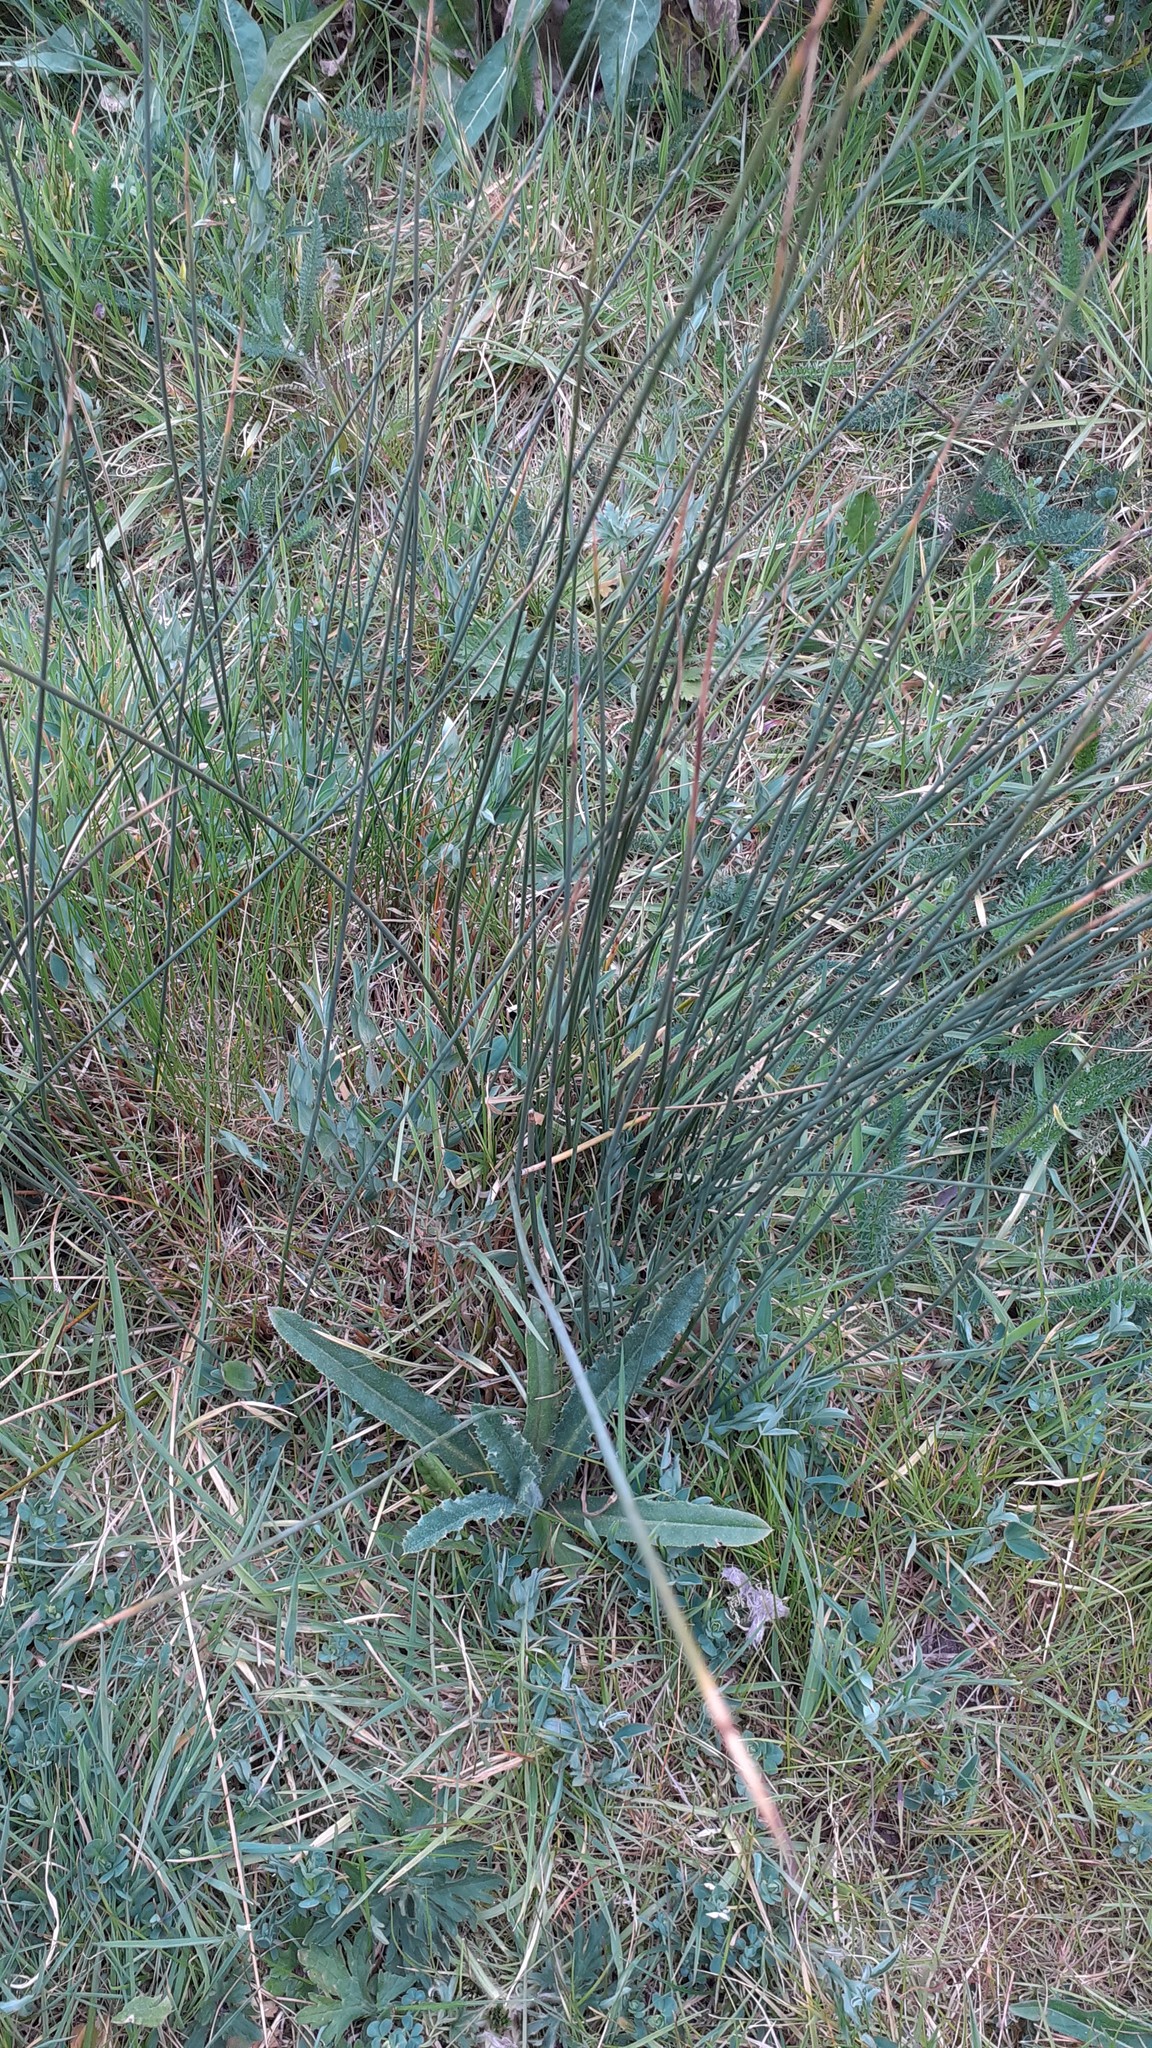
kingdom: Plantae
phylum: Tracheophyta
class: Liliopsida
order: Poales
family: Juncaceae
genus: Juncus
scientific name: Juncus inflexus
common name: Hard rush
